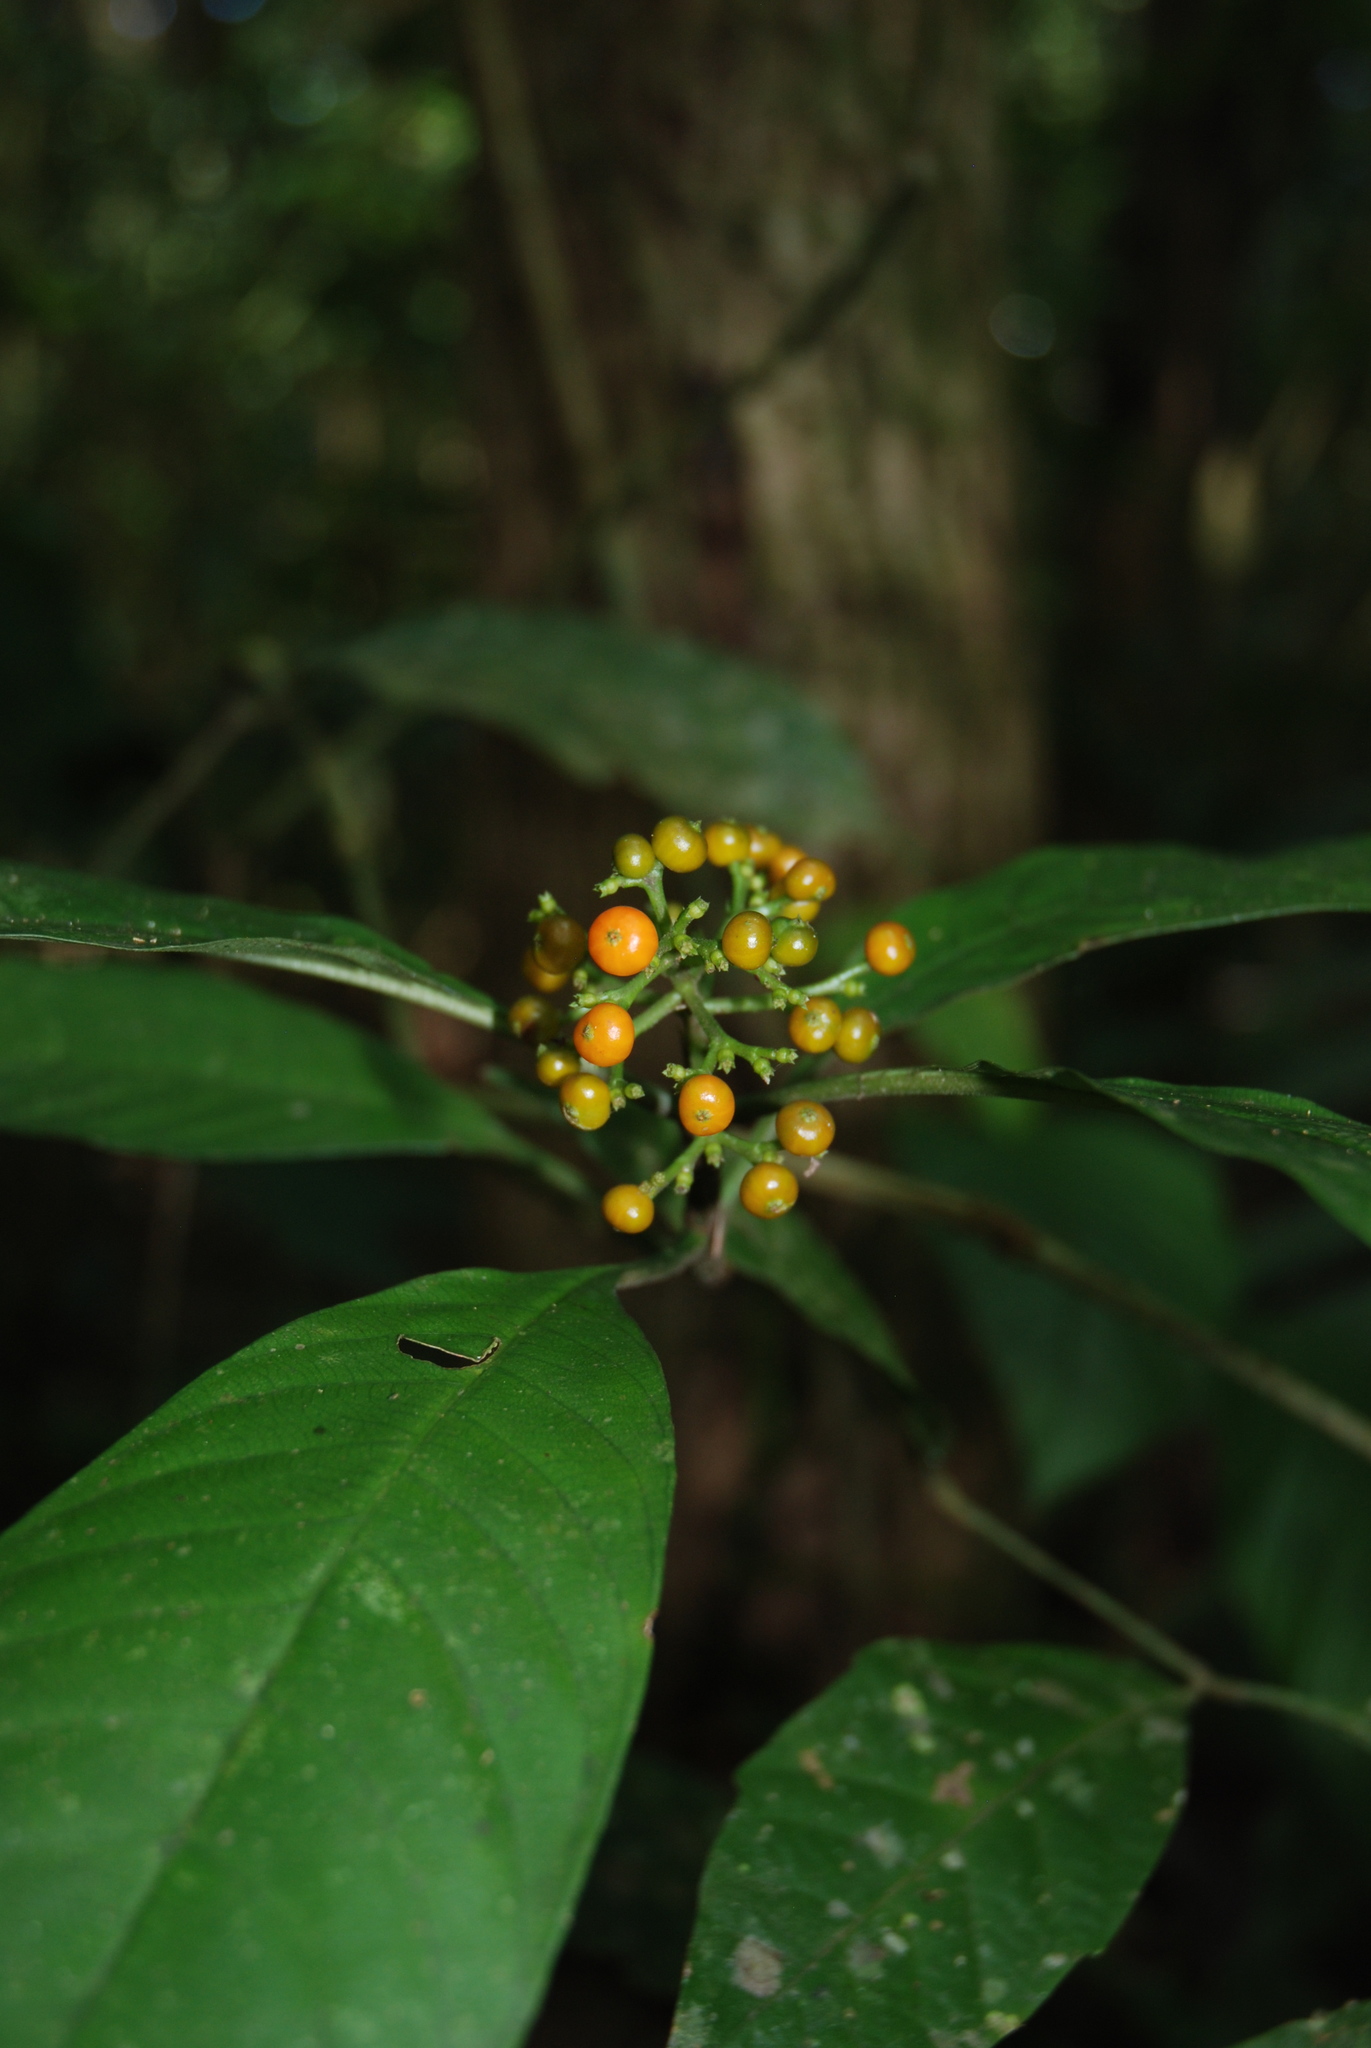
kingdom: Plantae
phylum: Tracheophyta
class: Magnoliopsida
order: Gentianales
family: Rubiaceae
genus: Palicourea
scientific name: Palicourea racemosa
